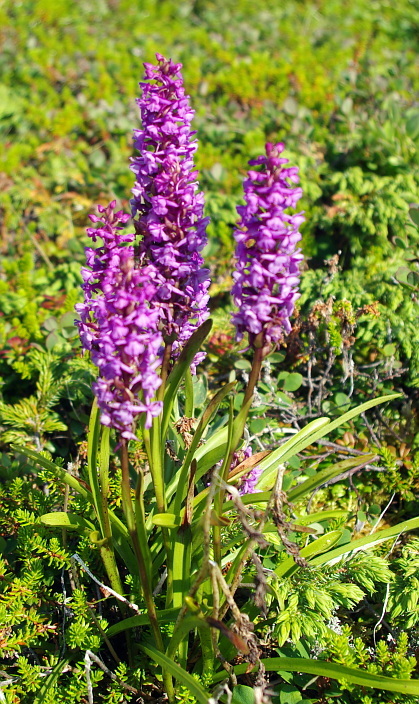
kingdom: Plantae
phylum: Tracheophyta
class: Liliopsida
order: Asparagales
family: Orchidaceae
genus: Gymnadenia
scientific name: Gymnadenia conopsea
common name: Fragrant orchid
